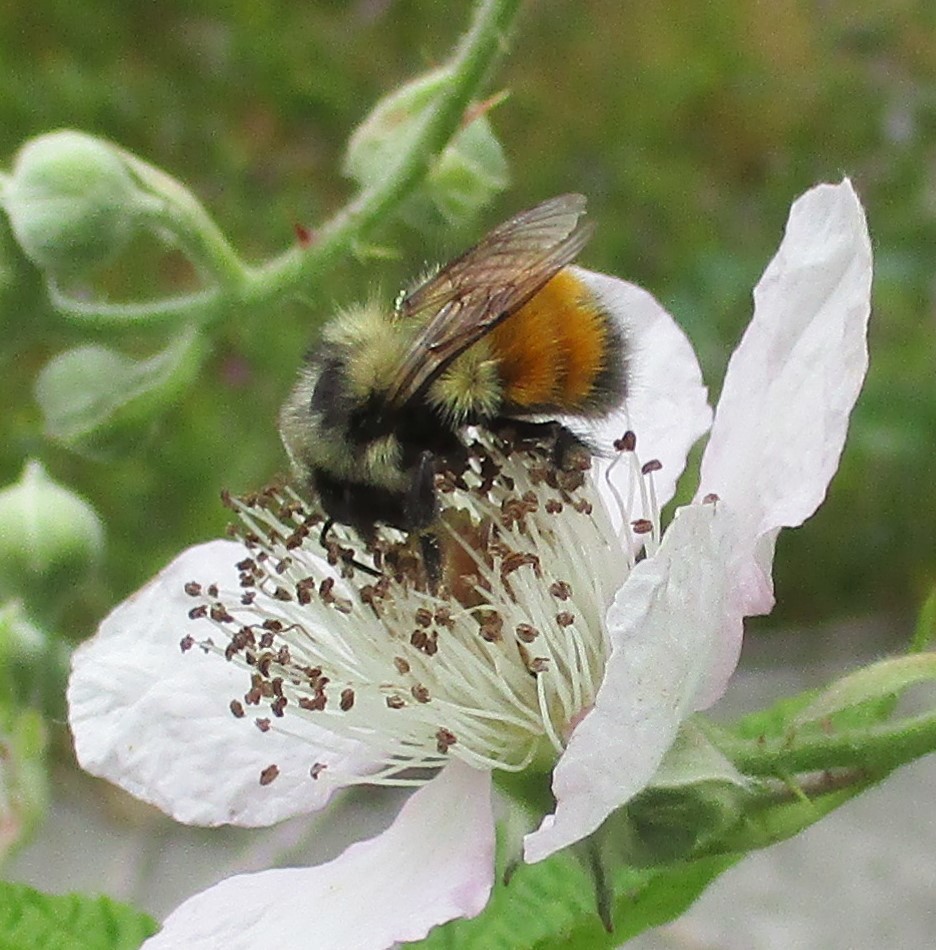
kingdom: Animalia
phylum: Arthropoda
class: Insecta
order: Hymenoptera
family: Apidae
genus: Bombus
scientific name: Bombus melanopygus
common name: Black tail bumble bee
